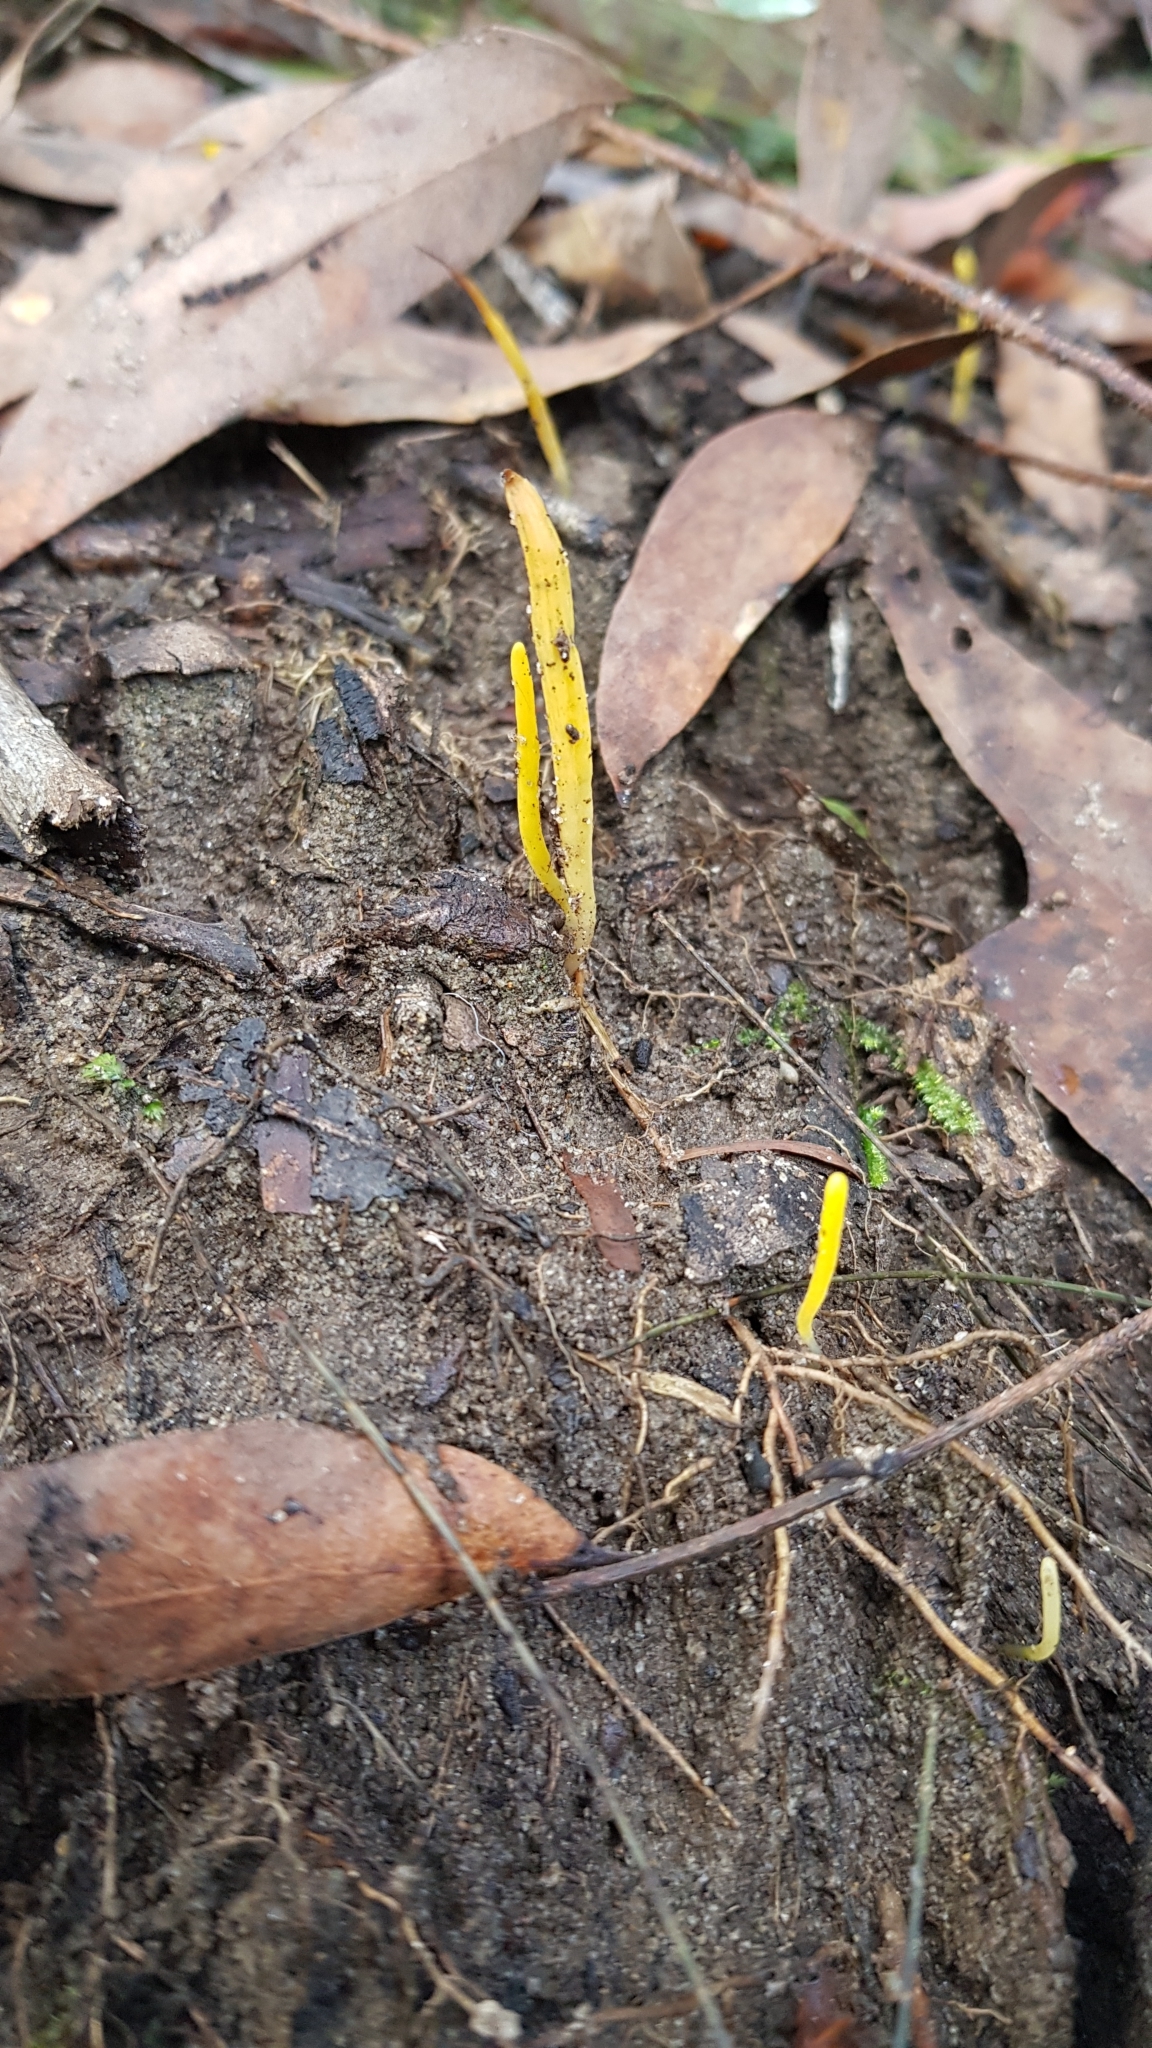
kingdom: Fungi
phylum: Basidiomycota
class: Agaricomycetes
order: Agaricales
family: Clavariaceae
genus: Clavulinopsis
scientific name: Clavulinopsis amoena
